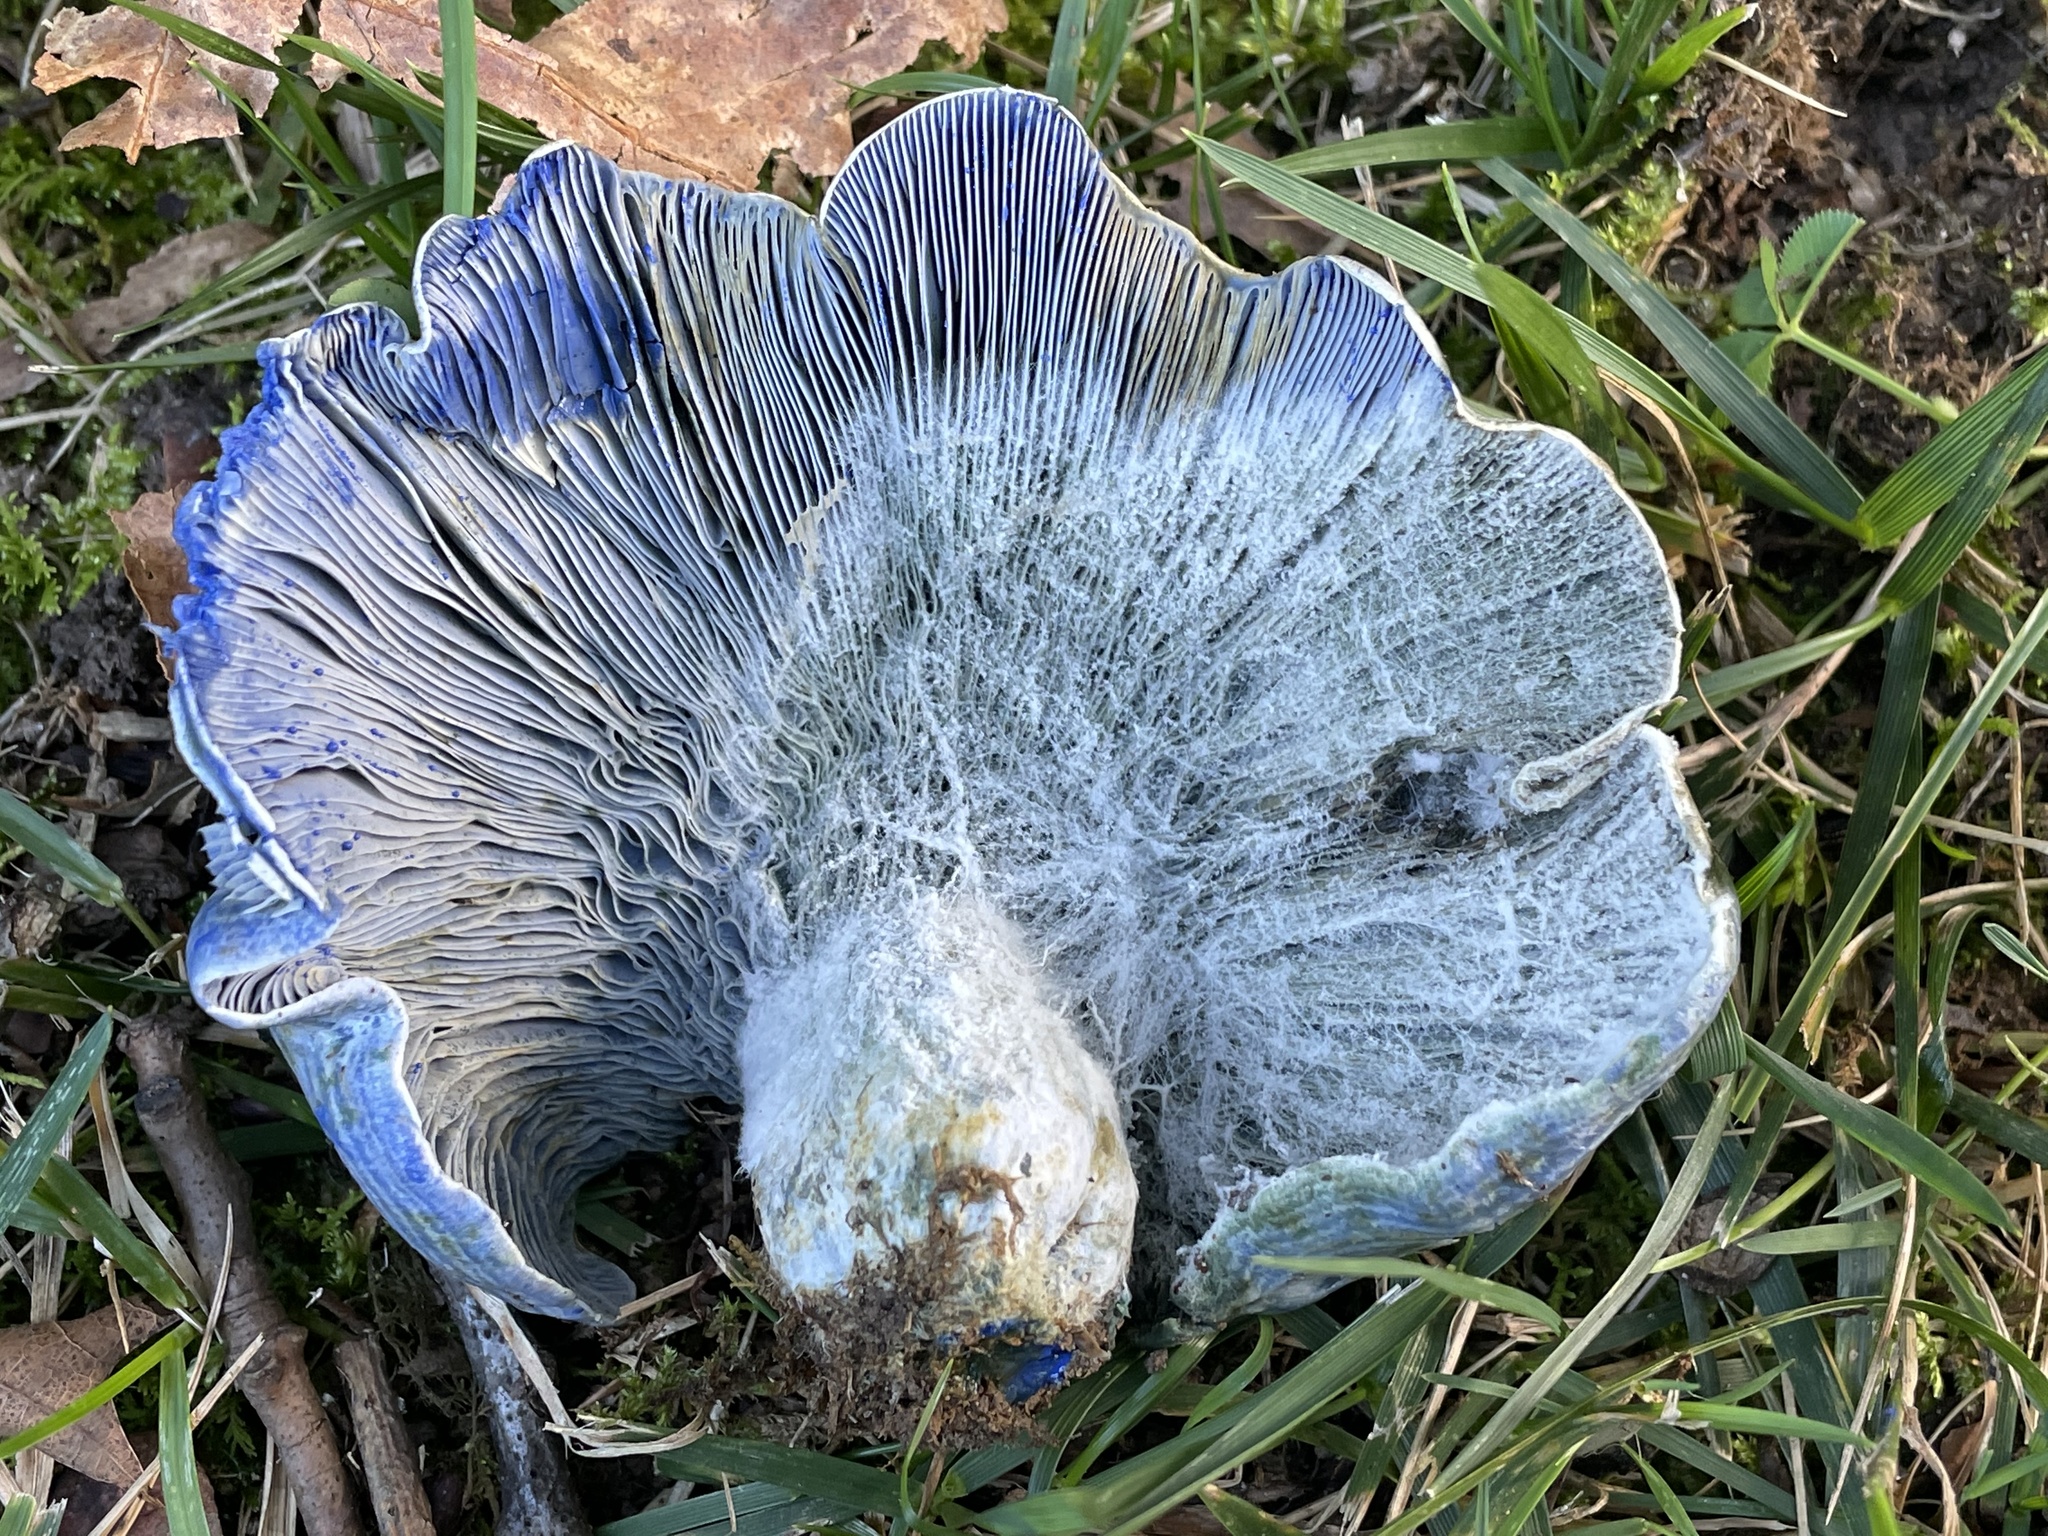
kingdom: Fungi
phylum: Basidiomycota
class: Agaricomycetes
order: Russulales
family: Russulaceae
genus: Lactarius
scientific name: Lactarius indigo
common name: Indigo milk cap
